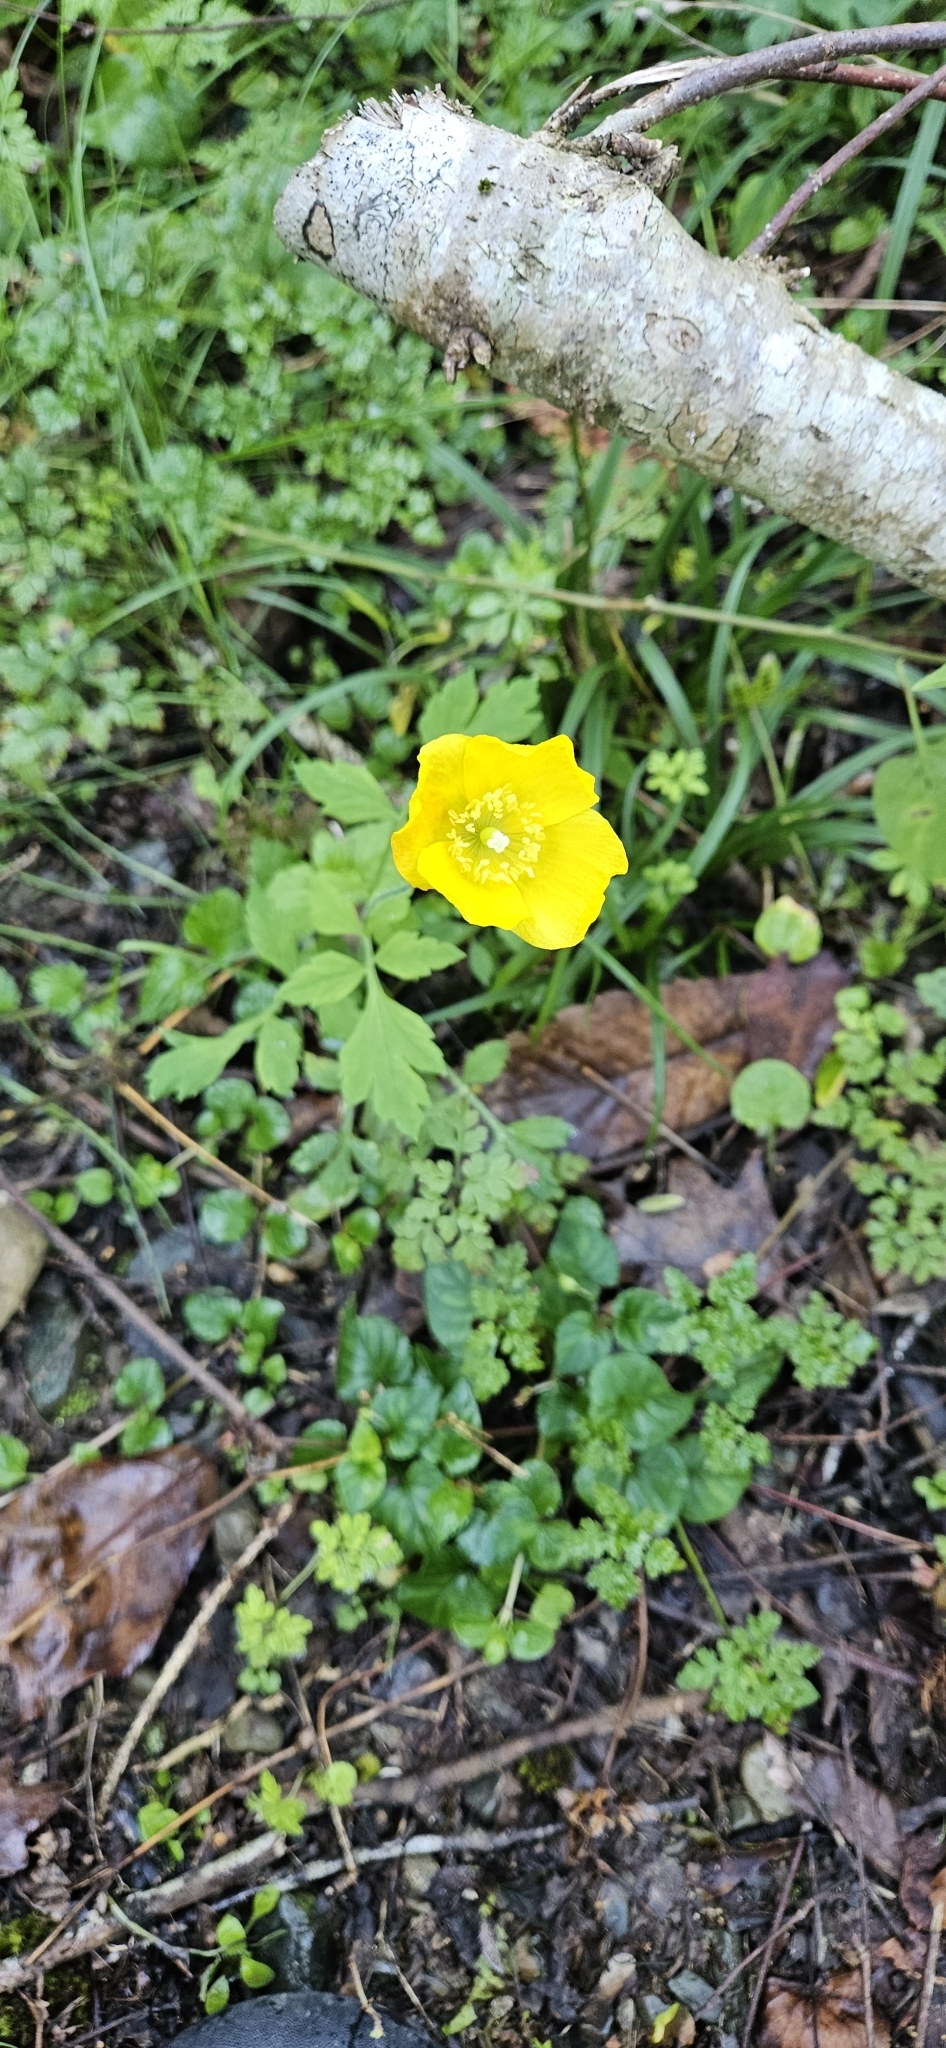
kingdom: Plantae
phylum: Tracheophyta
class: Magnoliopsida
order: Ranunculales
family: Papaveraceae
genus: Papaver
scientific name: Papaver cambricum
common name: Poppy
